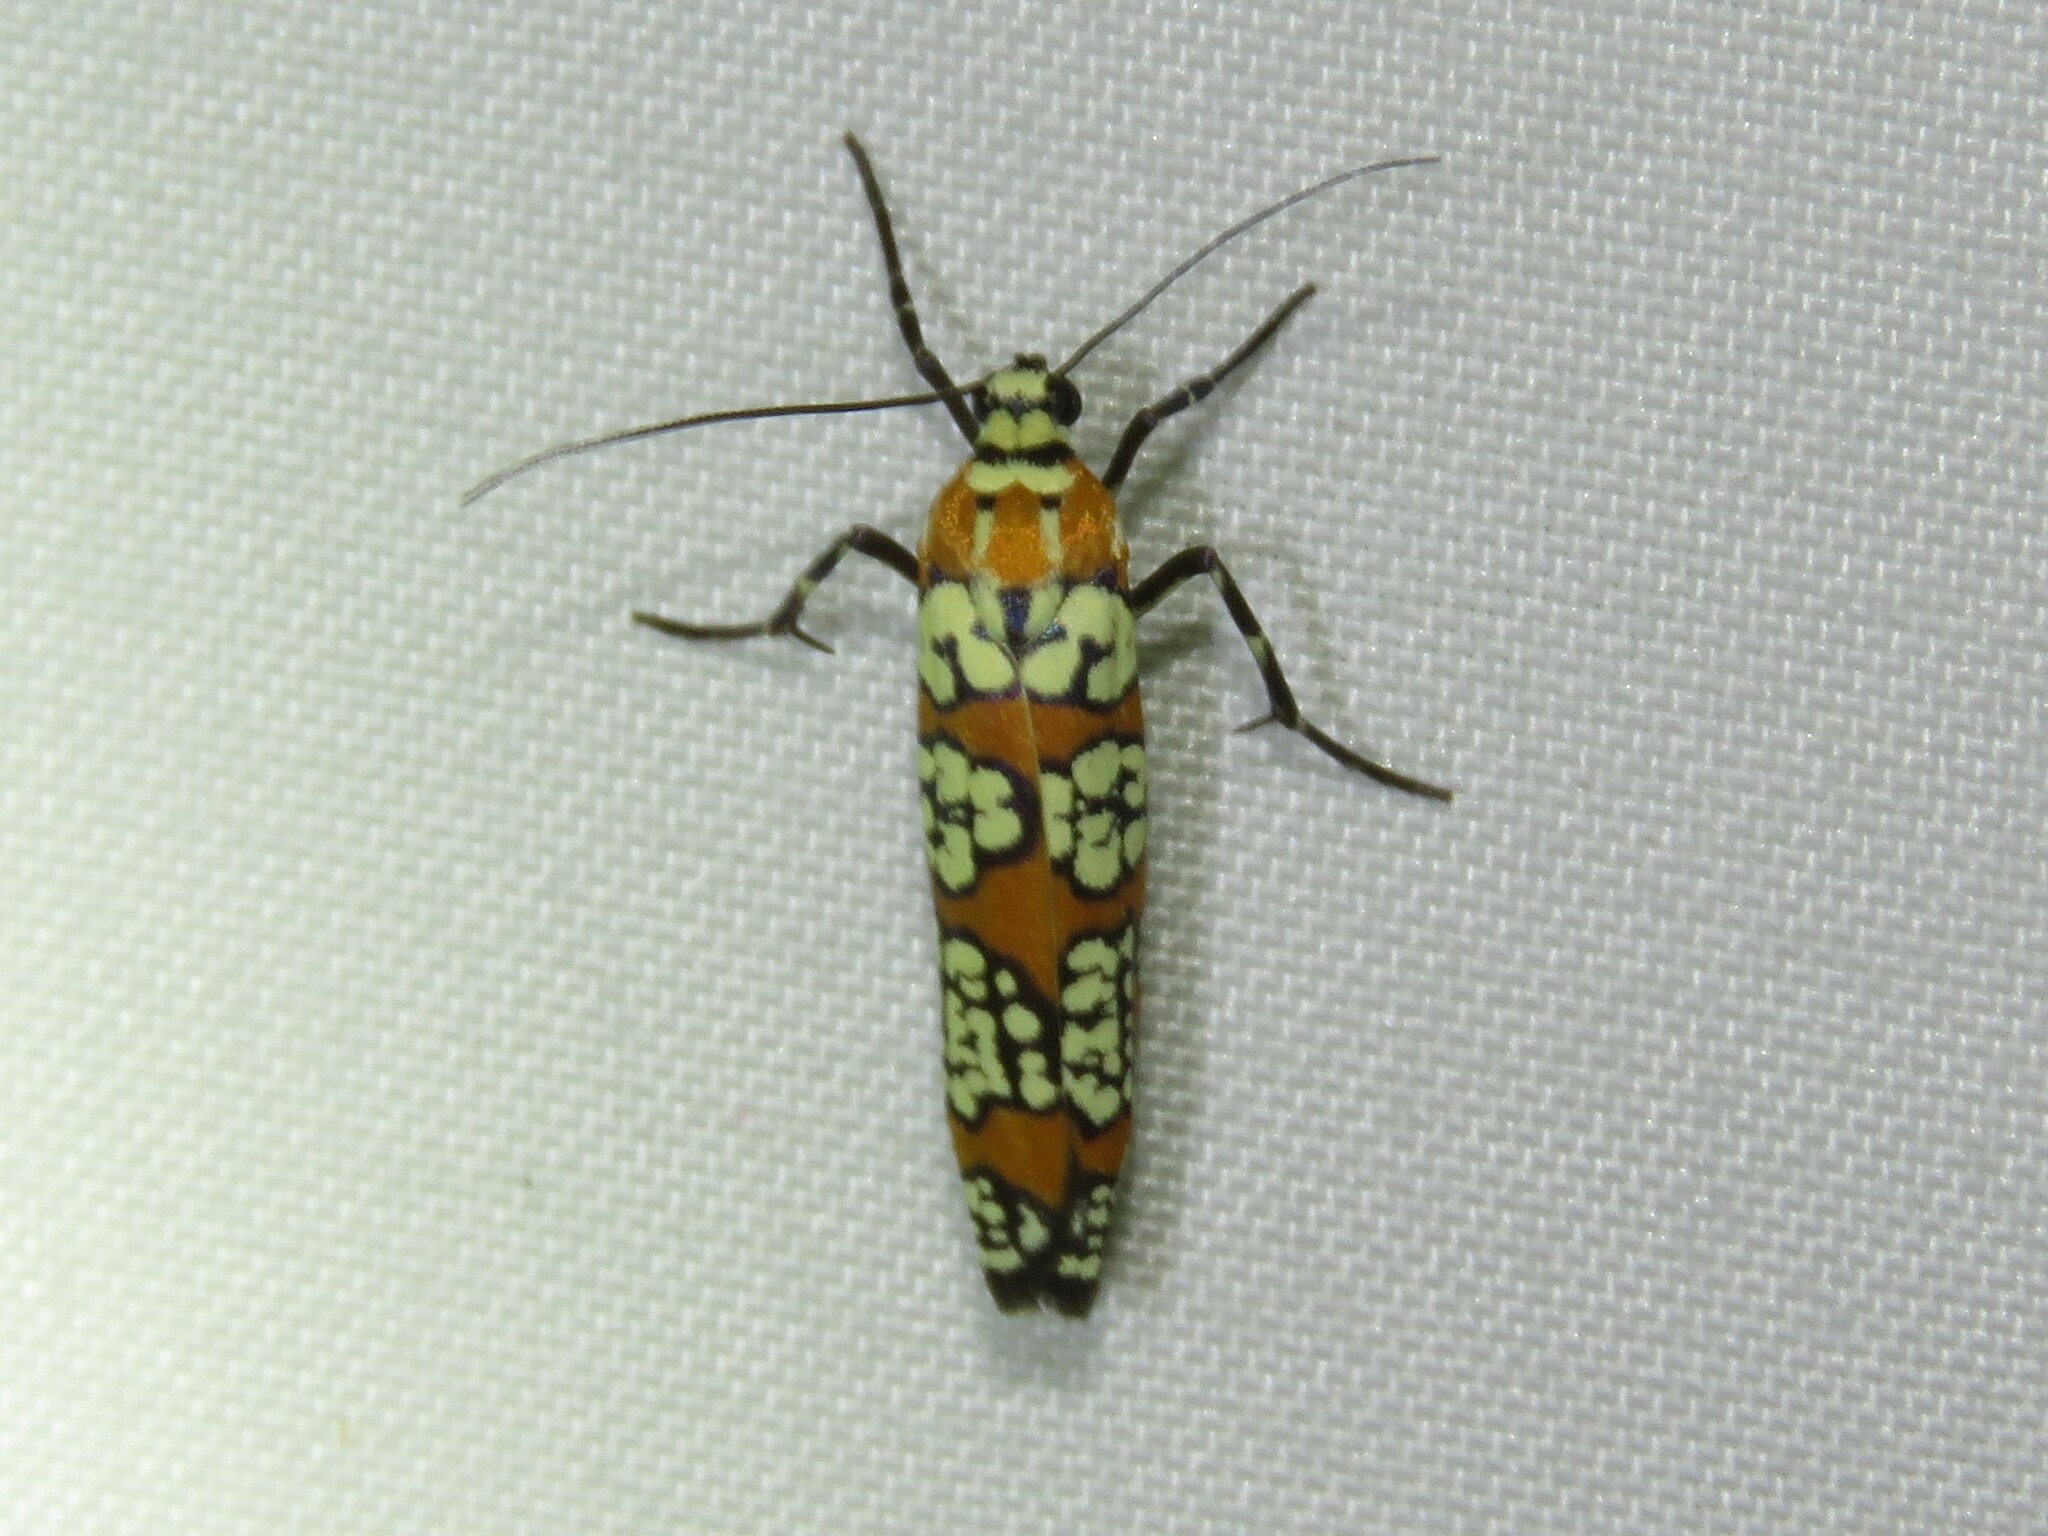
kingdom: Animalia
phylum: Arthropoda
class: Insecta
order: Lepidoptera
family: Attevidae
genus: Atteva
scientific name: Atteva punctella
